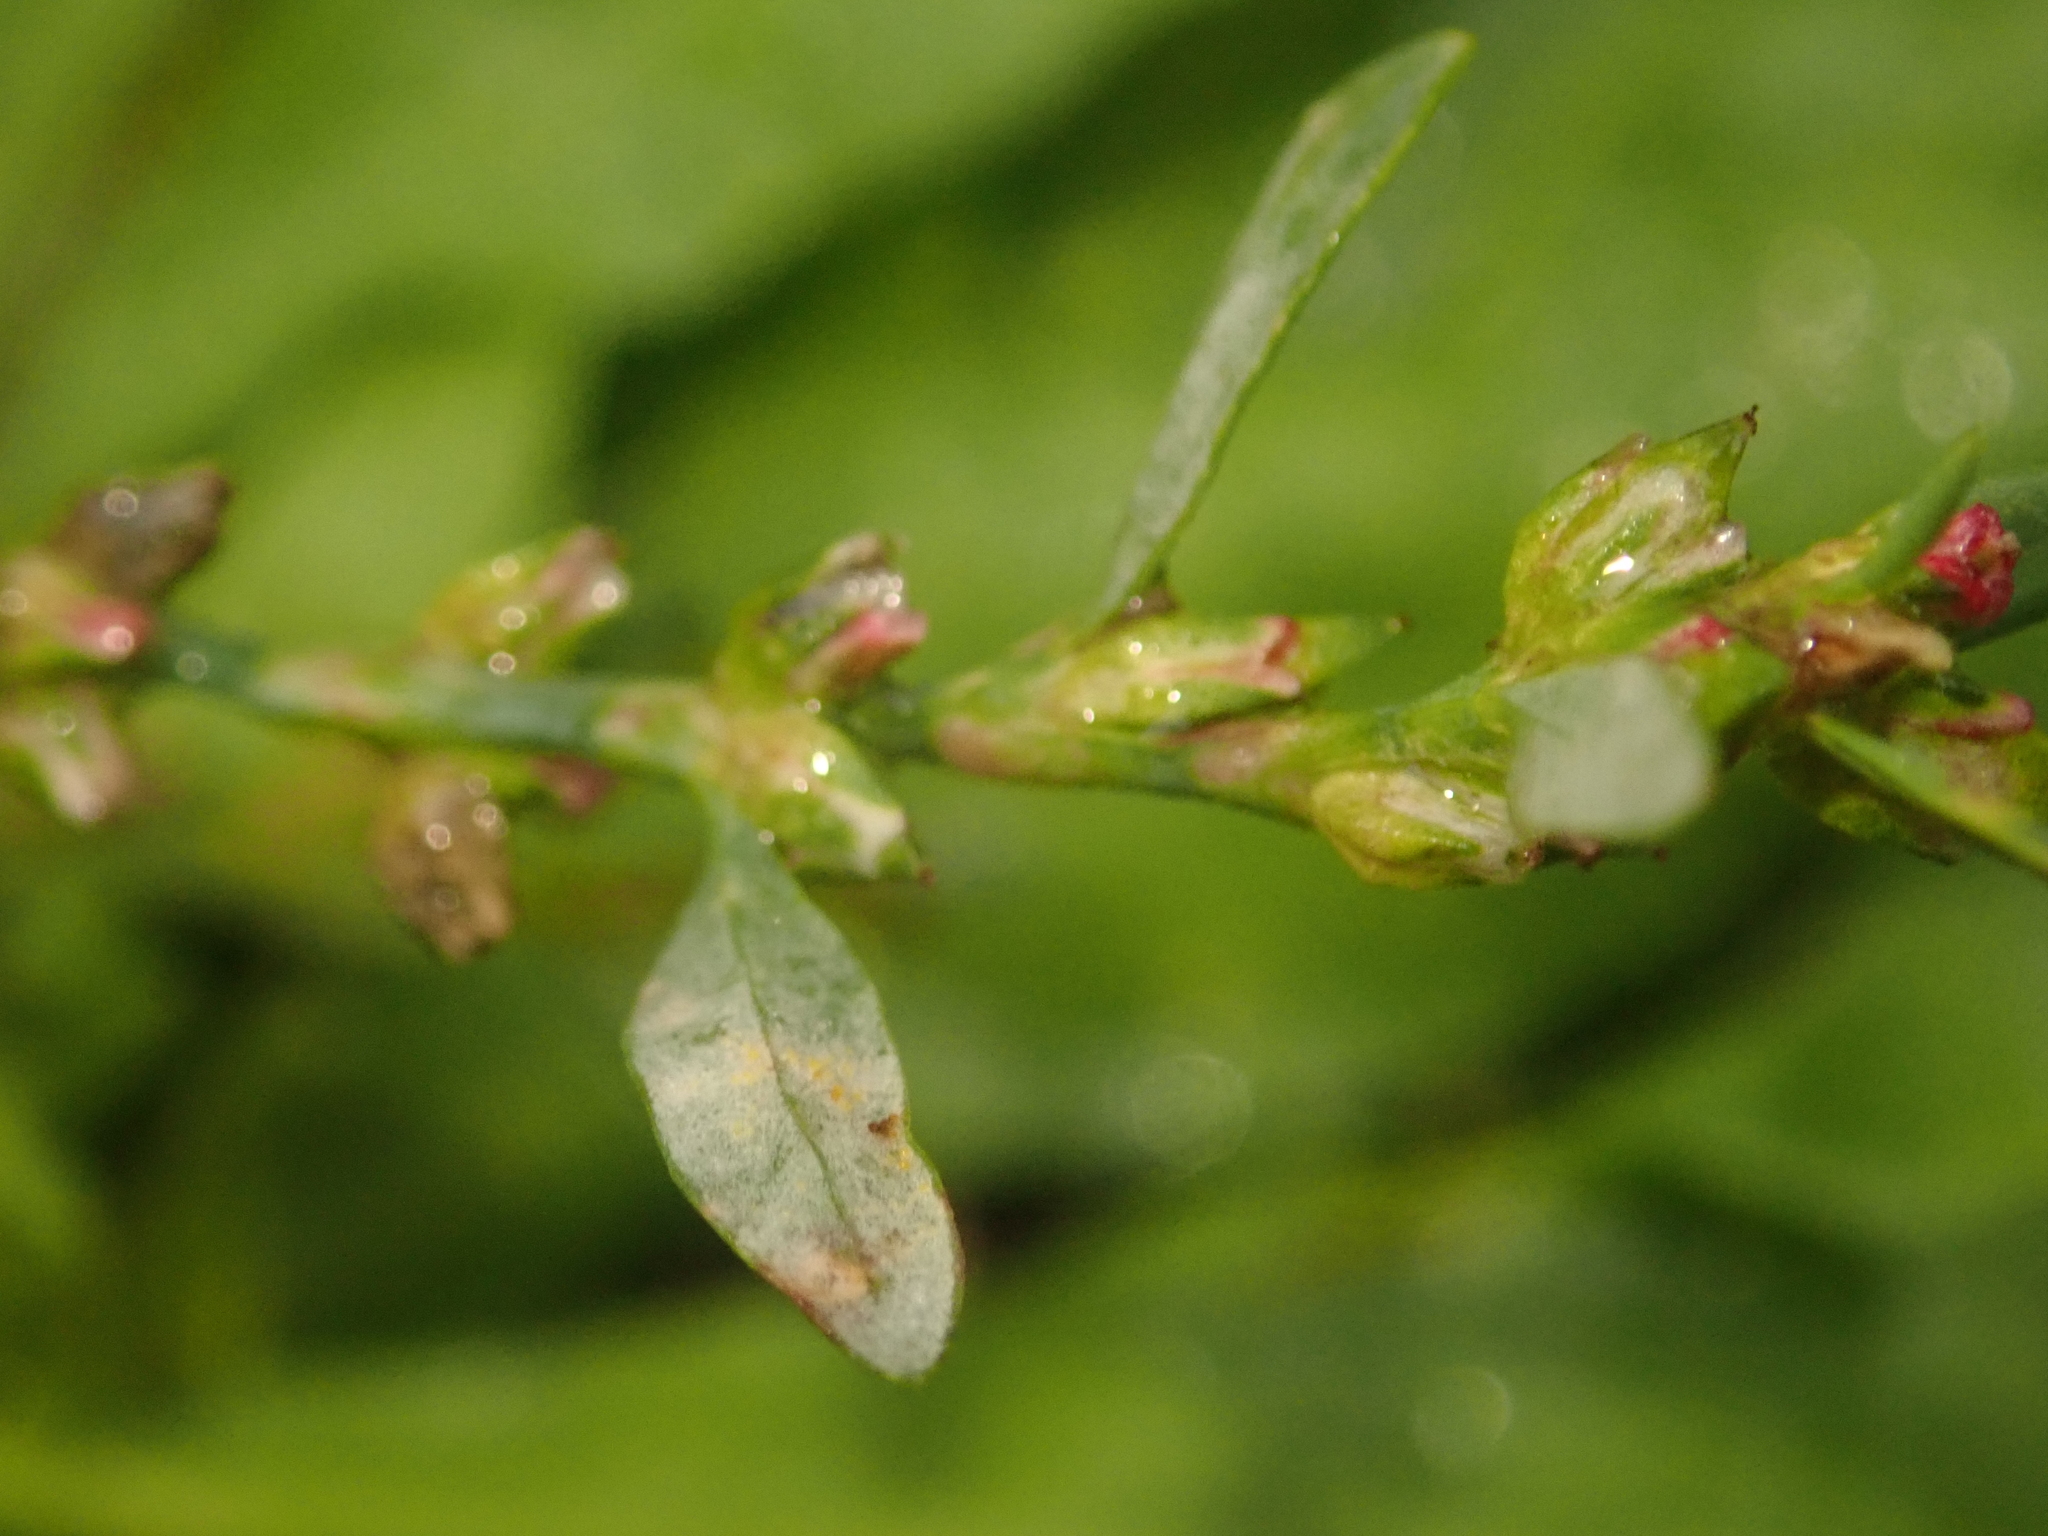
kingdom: Plantae
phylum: Tracheophyta
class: Magnoliopsida
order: Caryophyllales
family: Polygonaceae
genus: Polygonum
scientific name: Polygonum aviculare
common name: Prostrate knotweed
